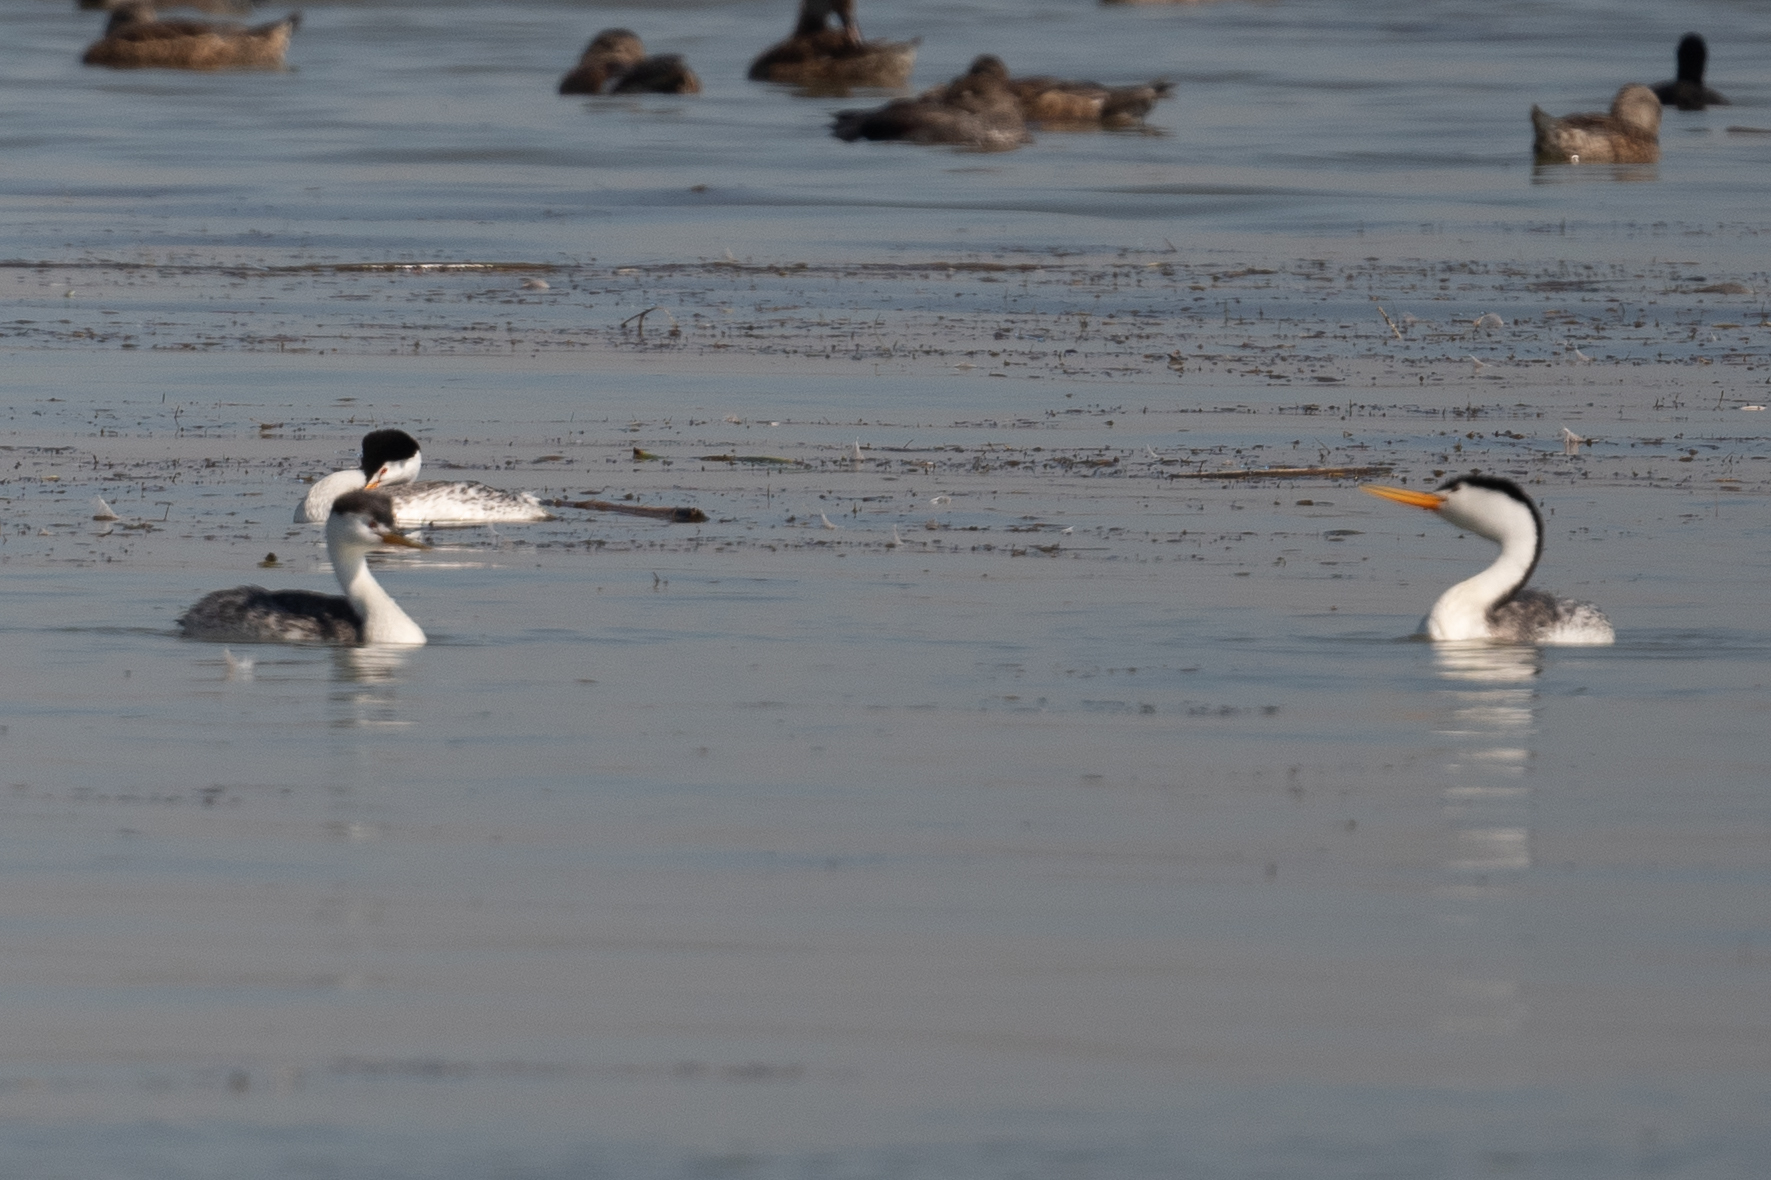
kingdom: Animalia
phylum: Chordata
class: Aves
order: Podicipediformes
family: Podicipedidae
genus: Aechmophorus
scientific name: Aechmophorus clarkii
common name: Clark's grebe
